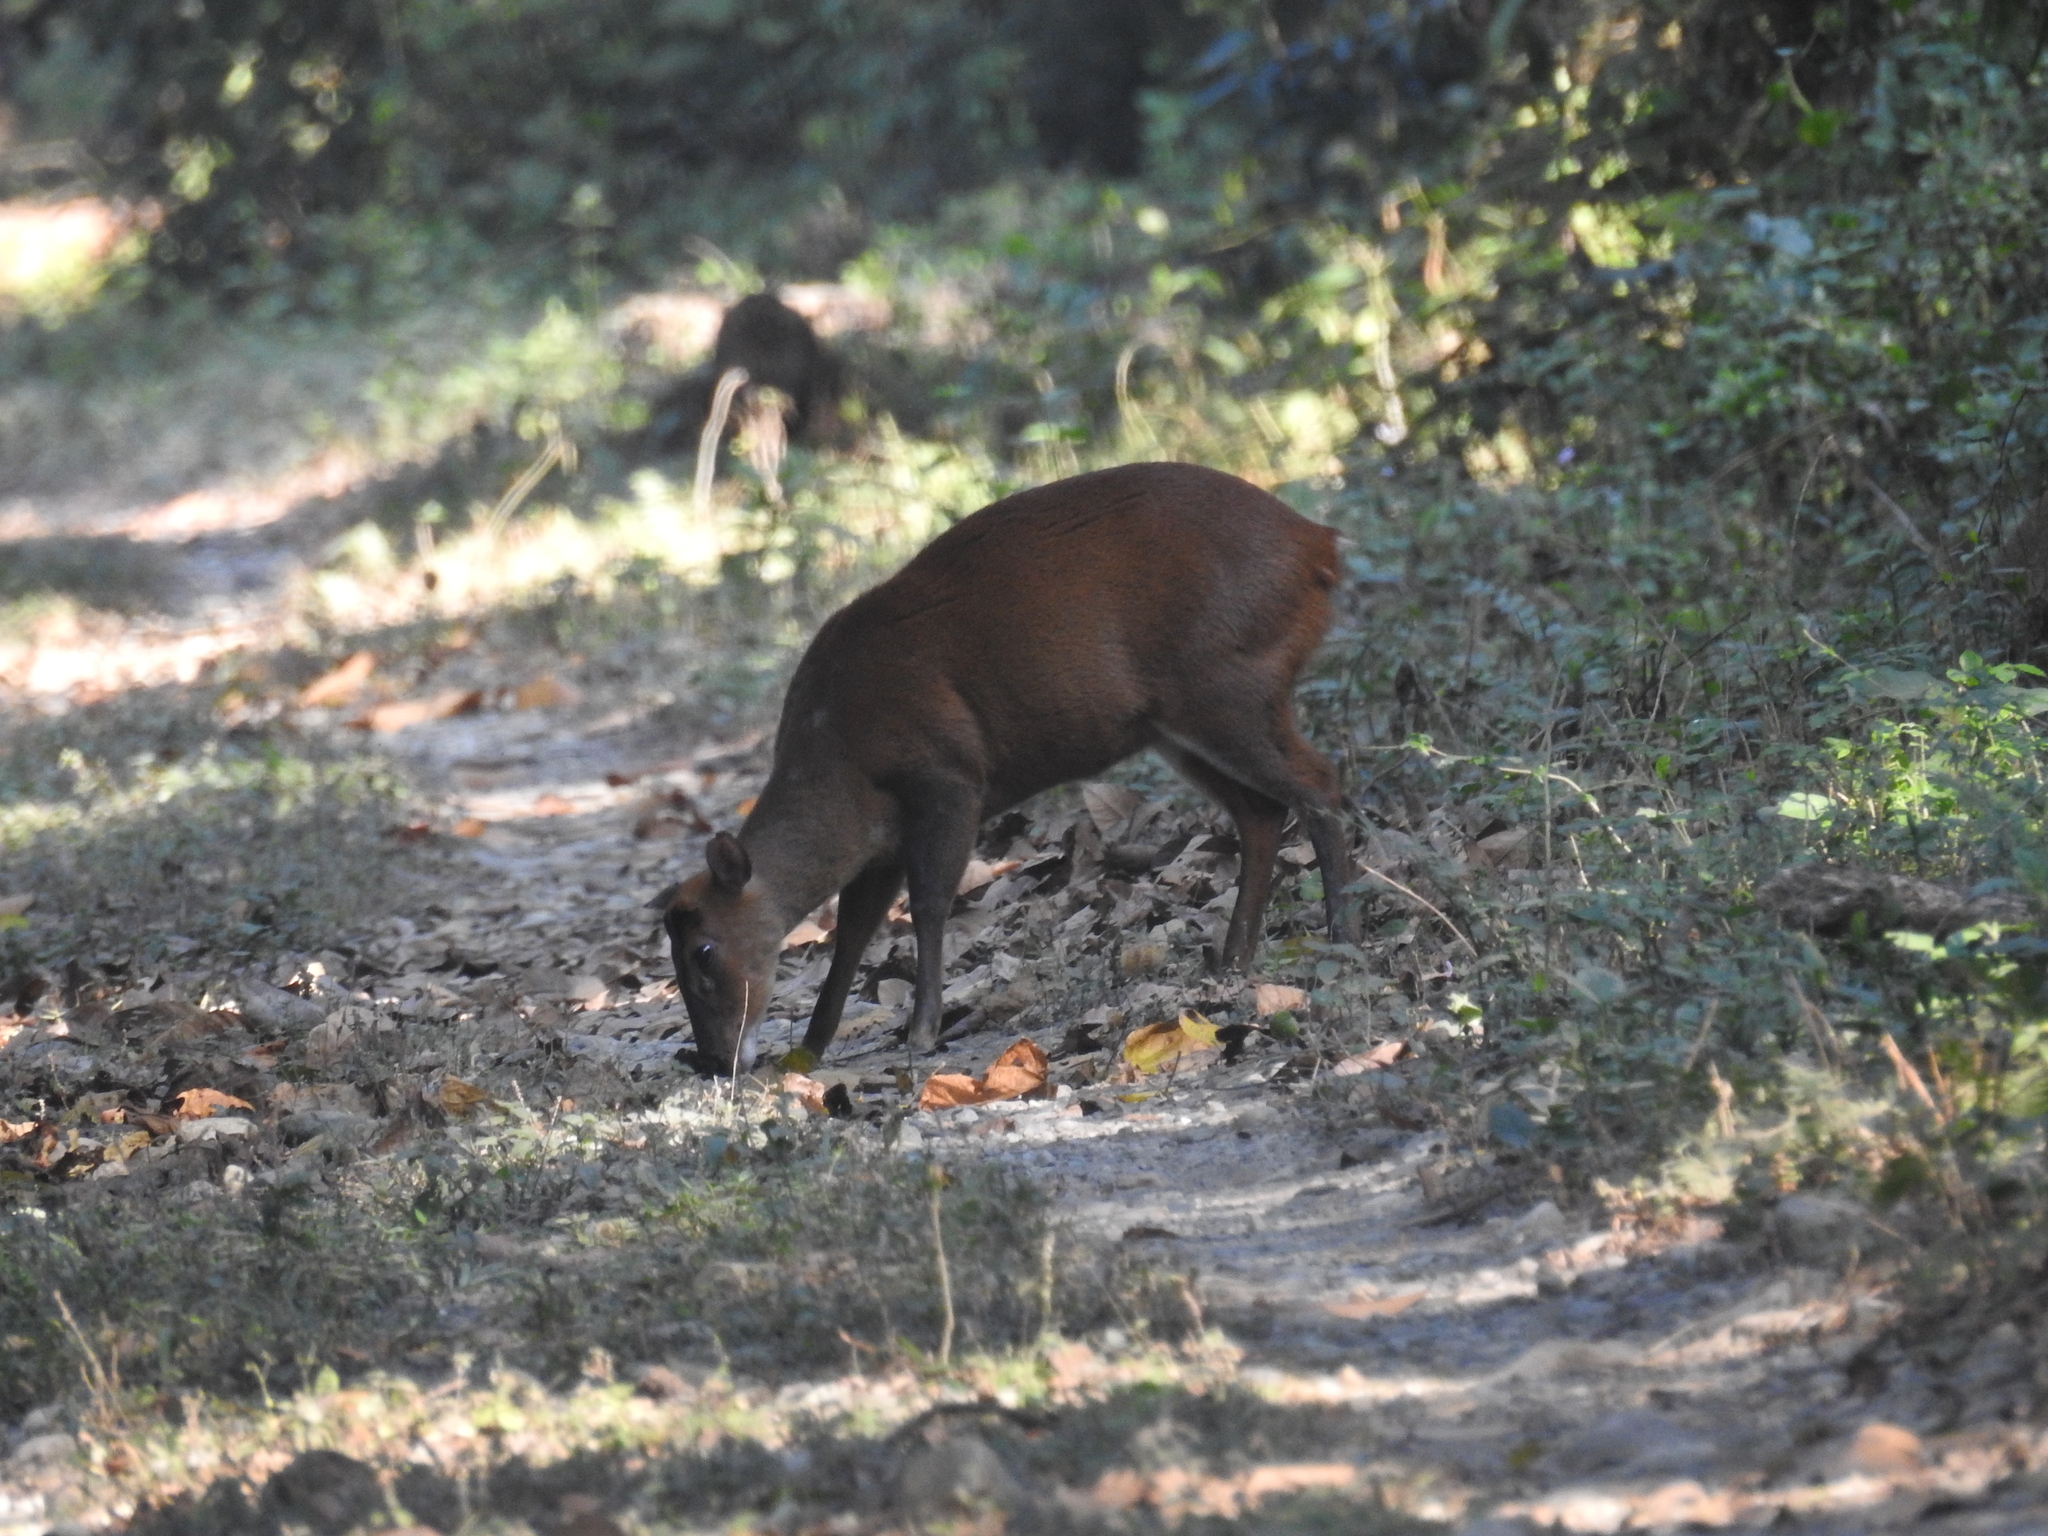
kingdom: Animalia
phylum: Chordata
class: Mammalia
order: Artiodactyla
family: Cervidae
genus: Muntiacus
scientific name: Muntiacus muntjak
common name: Indian muntjac
